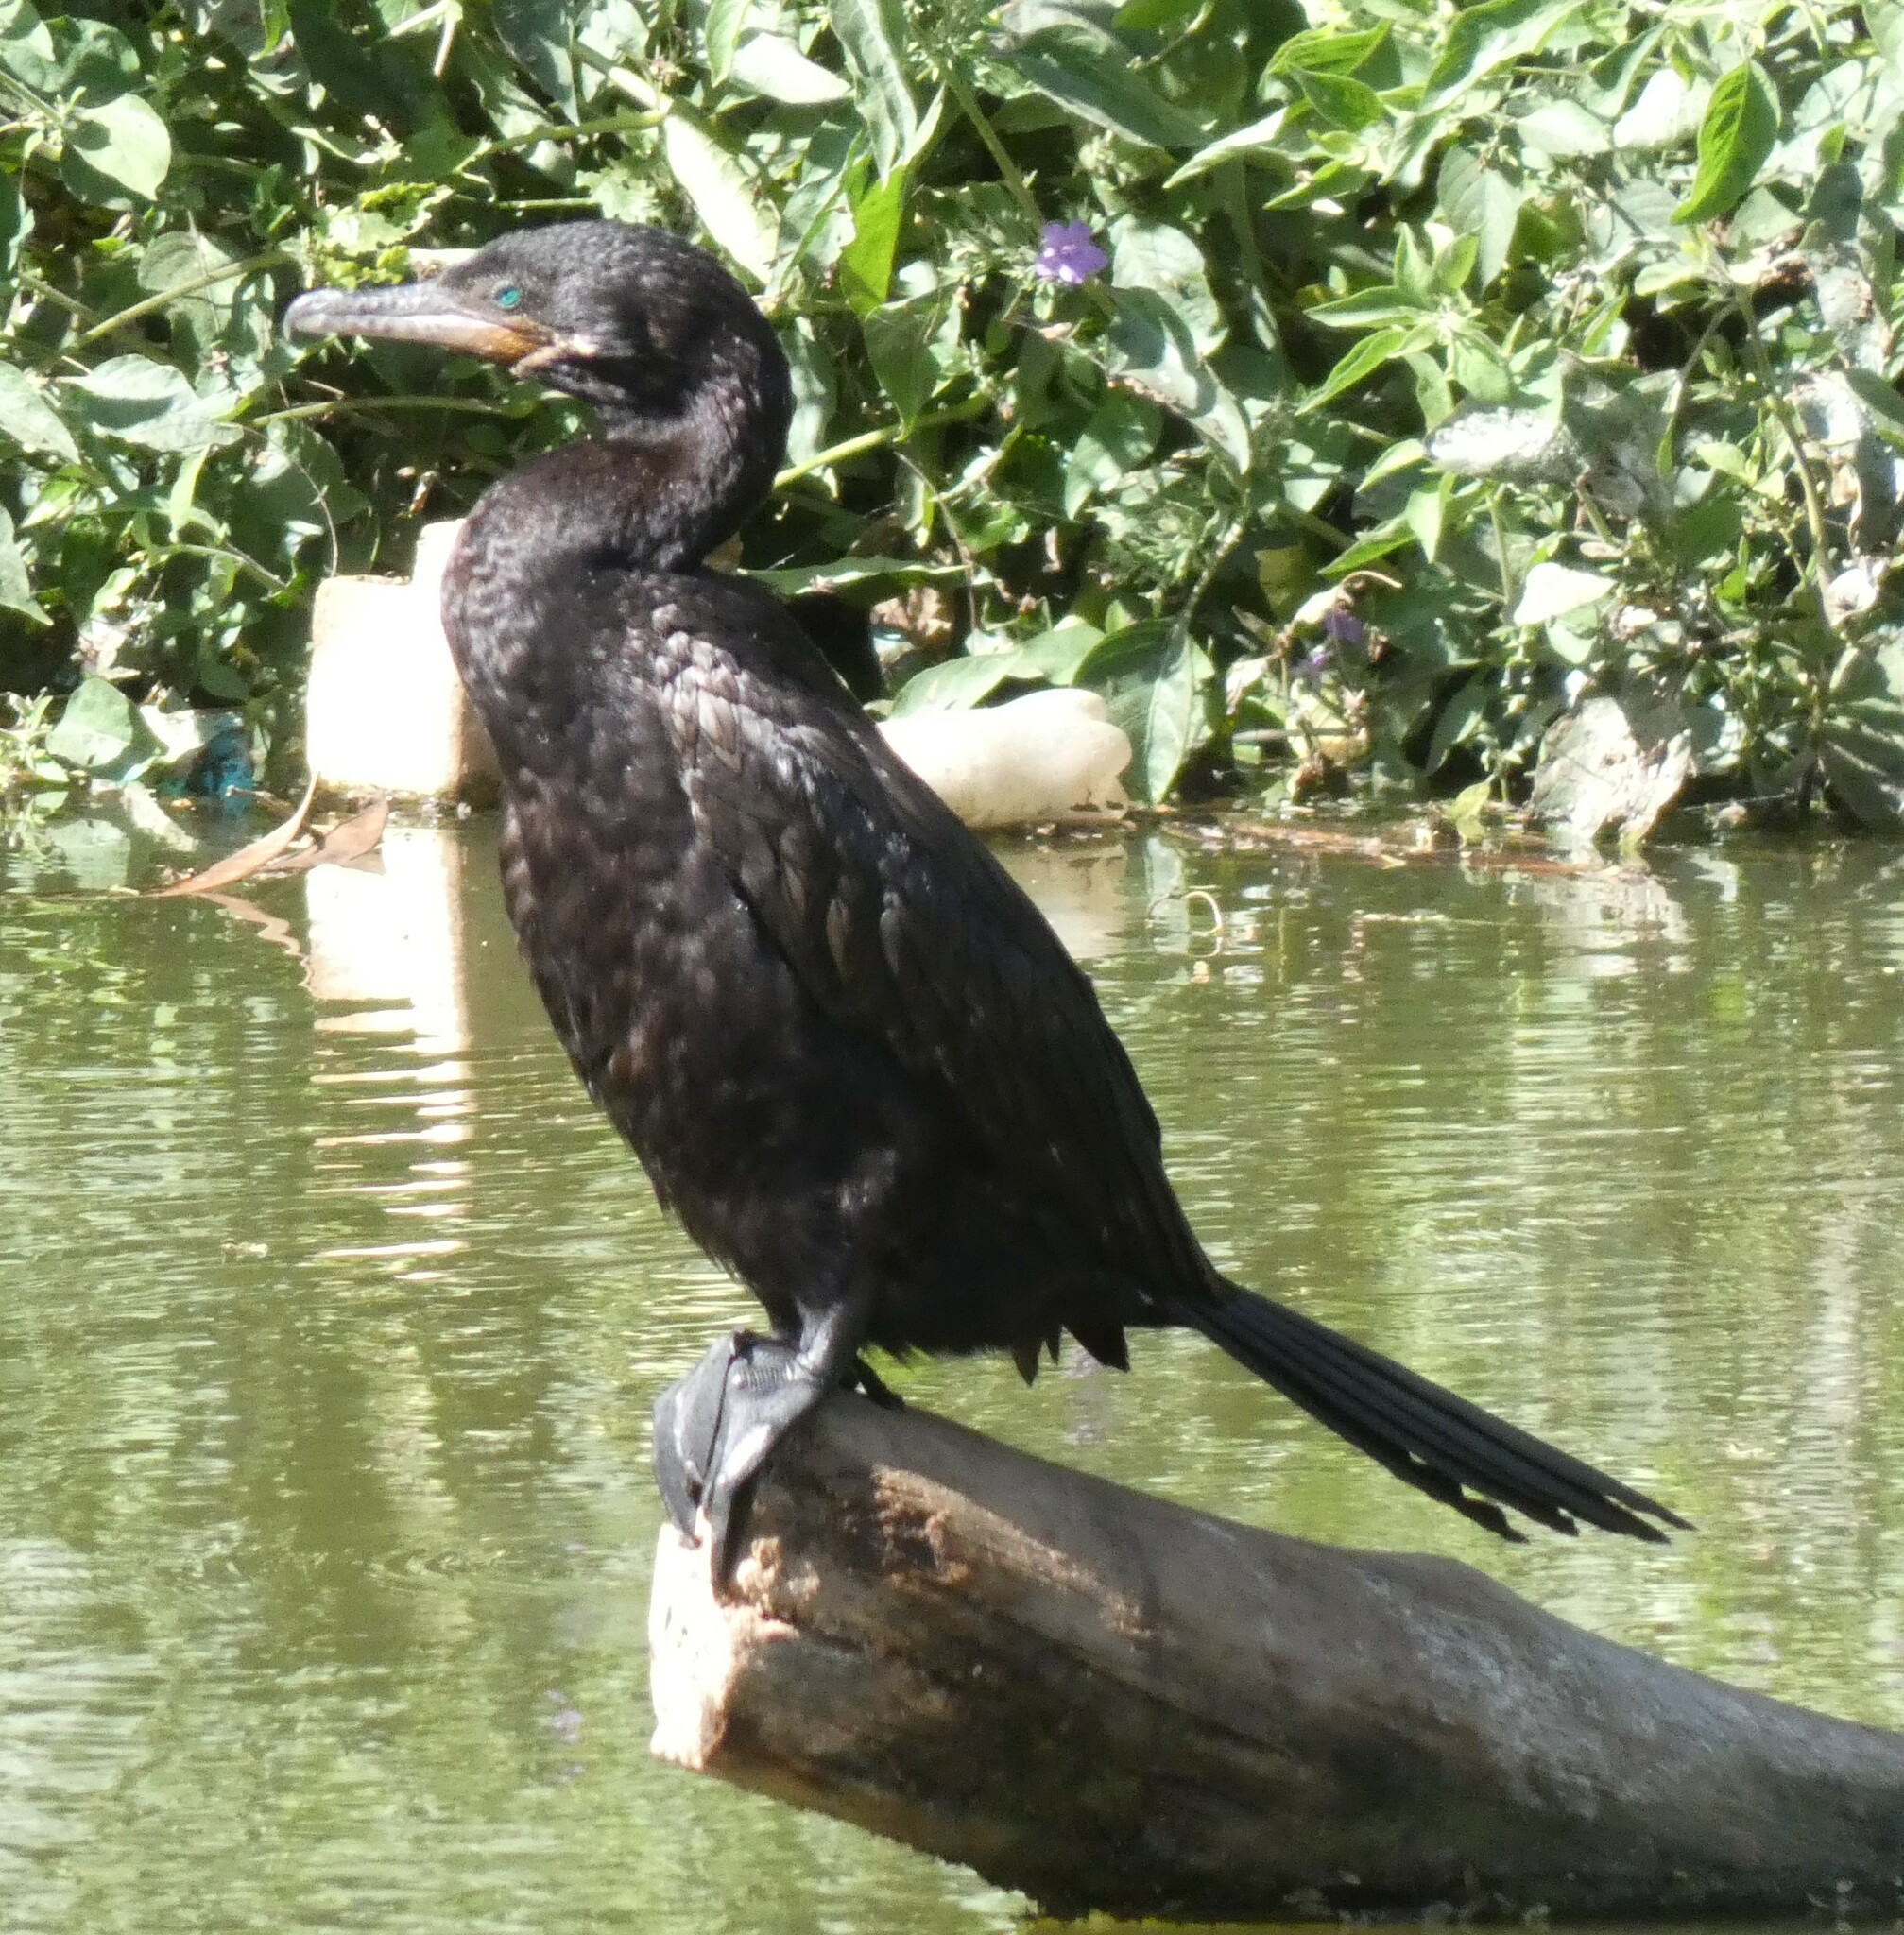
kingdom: Animalia
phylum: Chordata
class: Aves
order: Suliformes
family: Phalacrocoracidae
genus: Phalacrocorax
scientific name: Phalacrocorax brasilianus
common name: Neotropic cormorant
